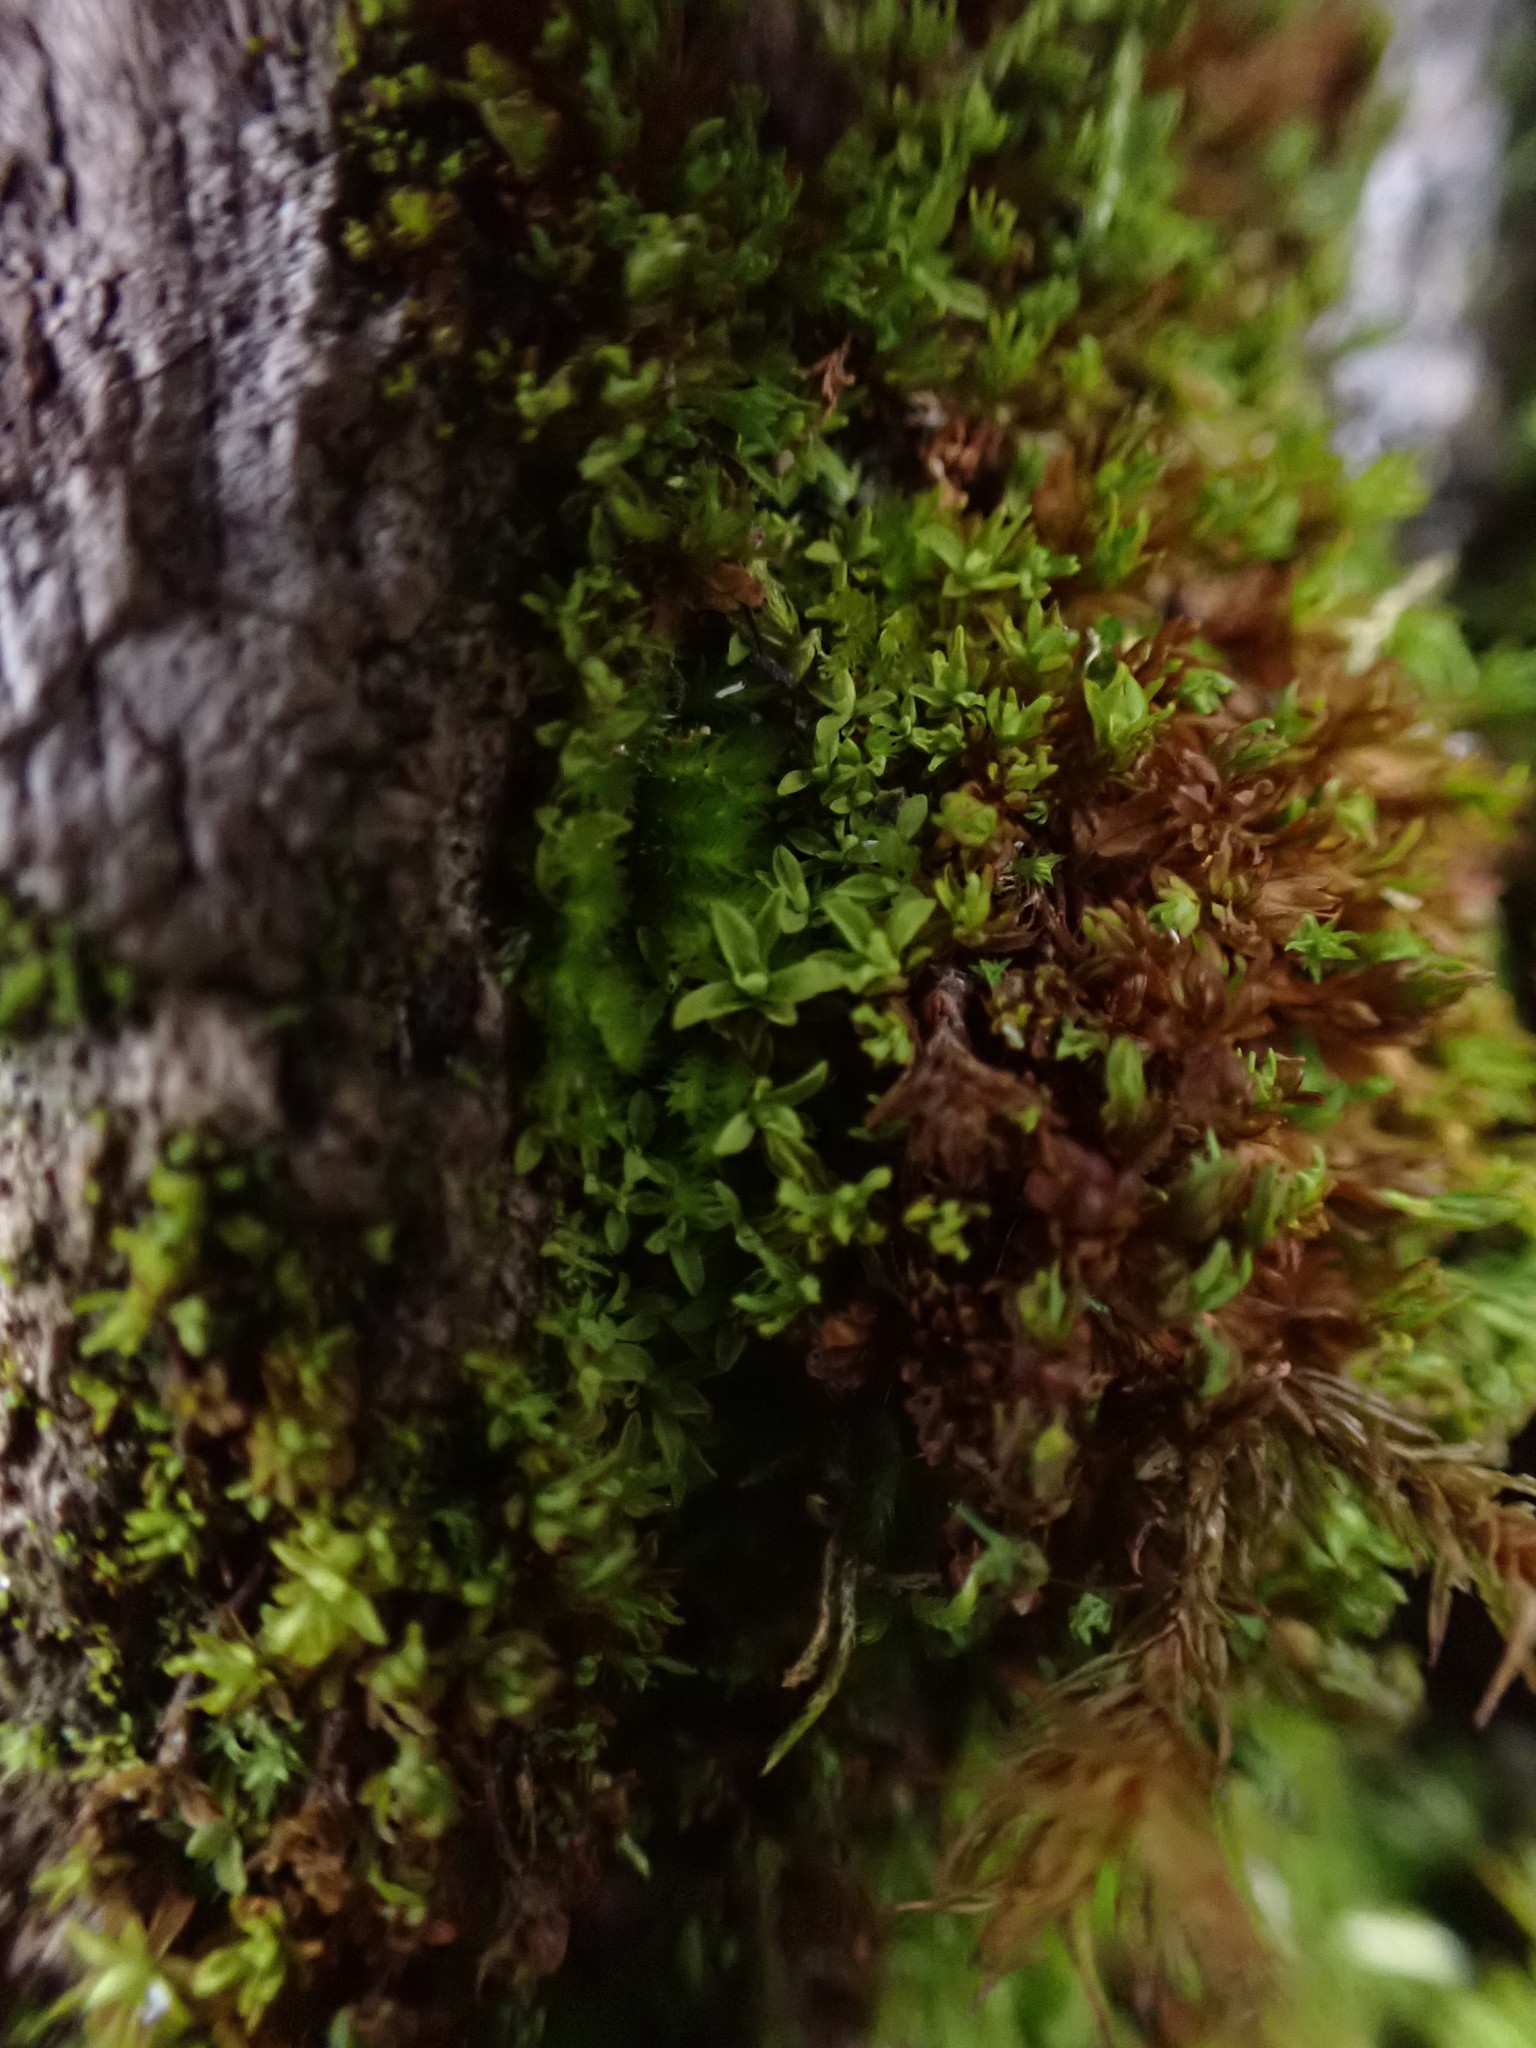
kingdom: Plantae
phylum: Bryophyta
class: Bryopsida
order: Pottiales
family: Pottiaceae
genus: Syntrichia
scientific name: Syntrichia latifolia
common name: Water screw-moss
